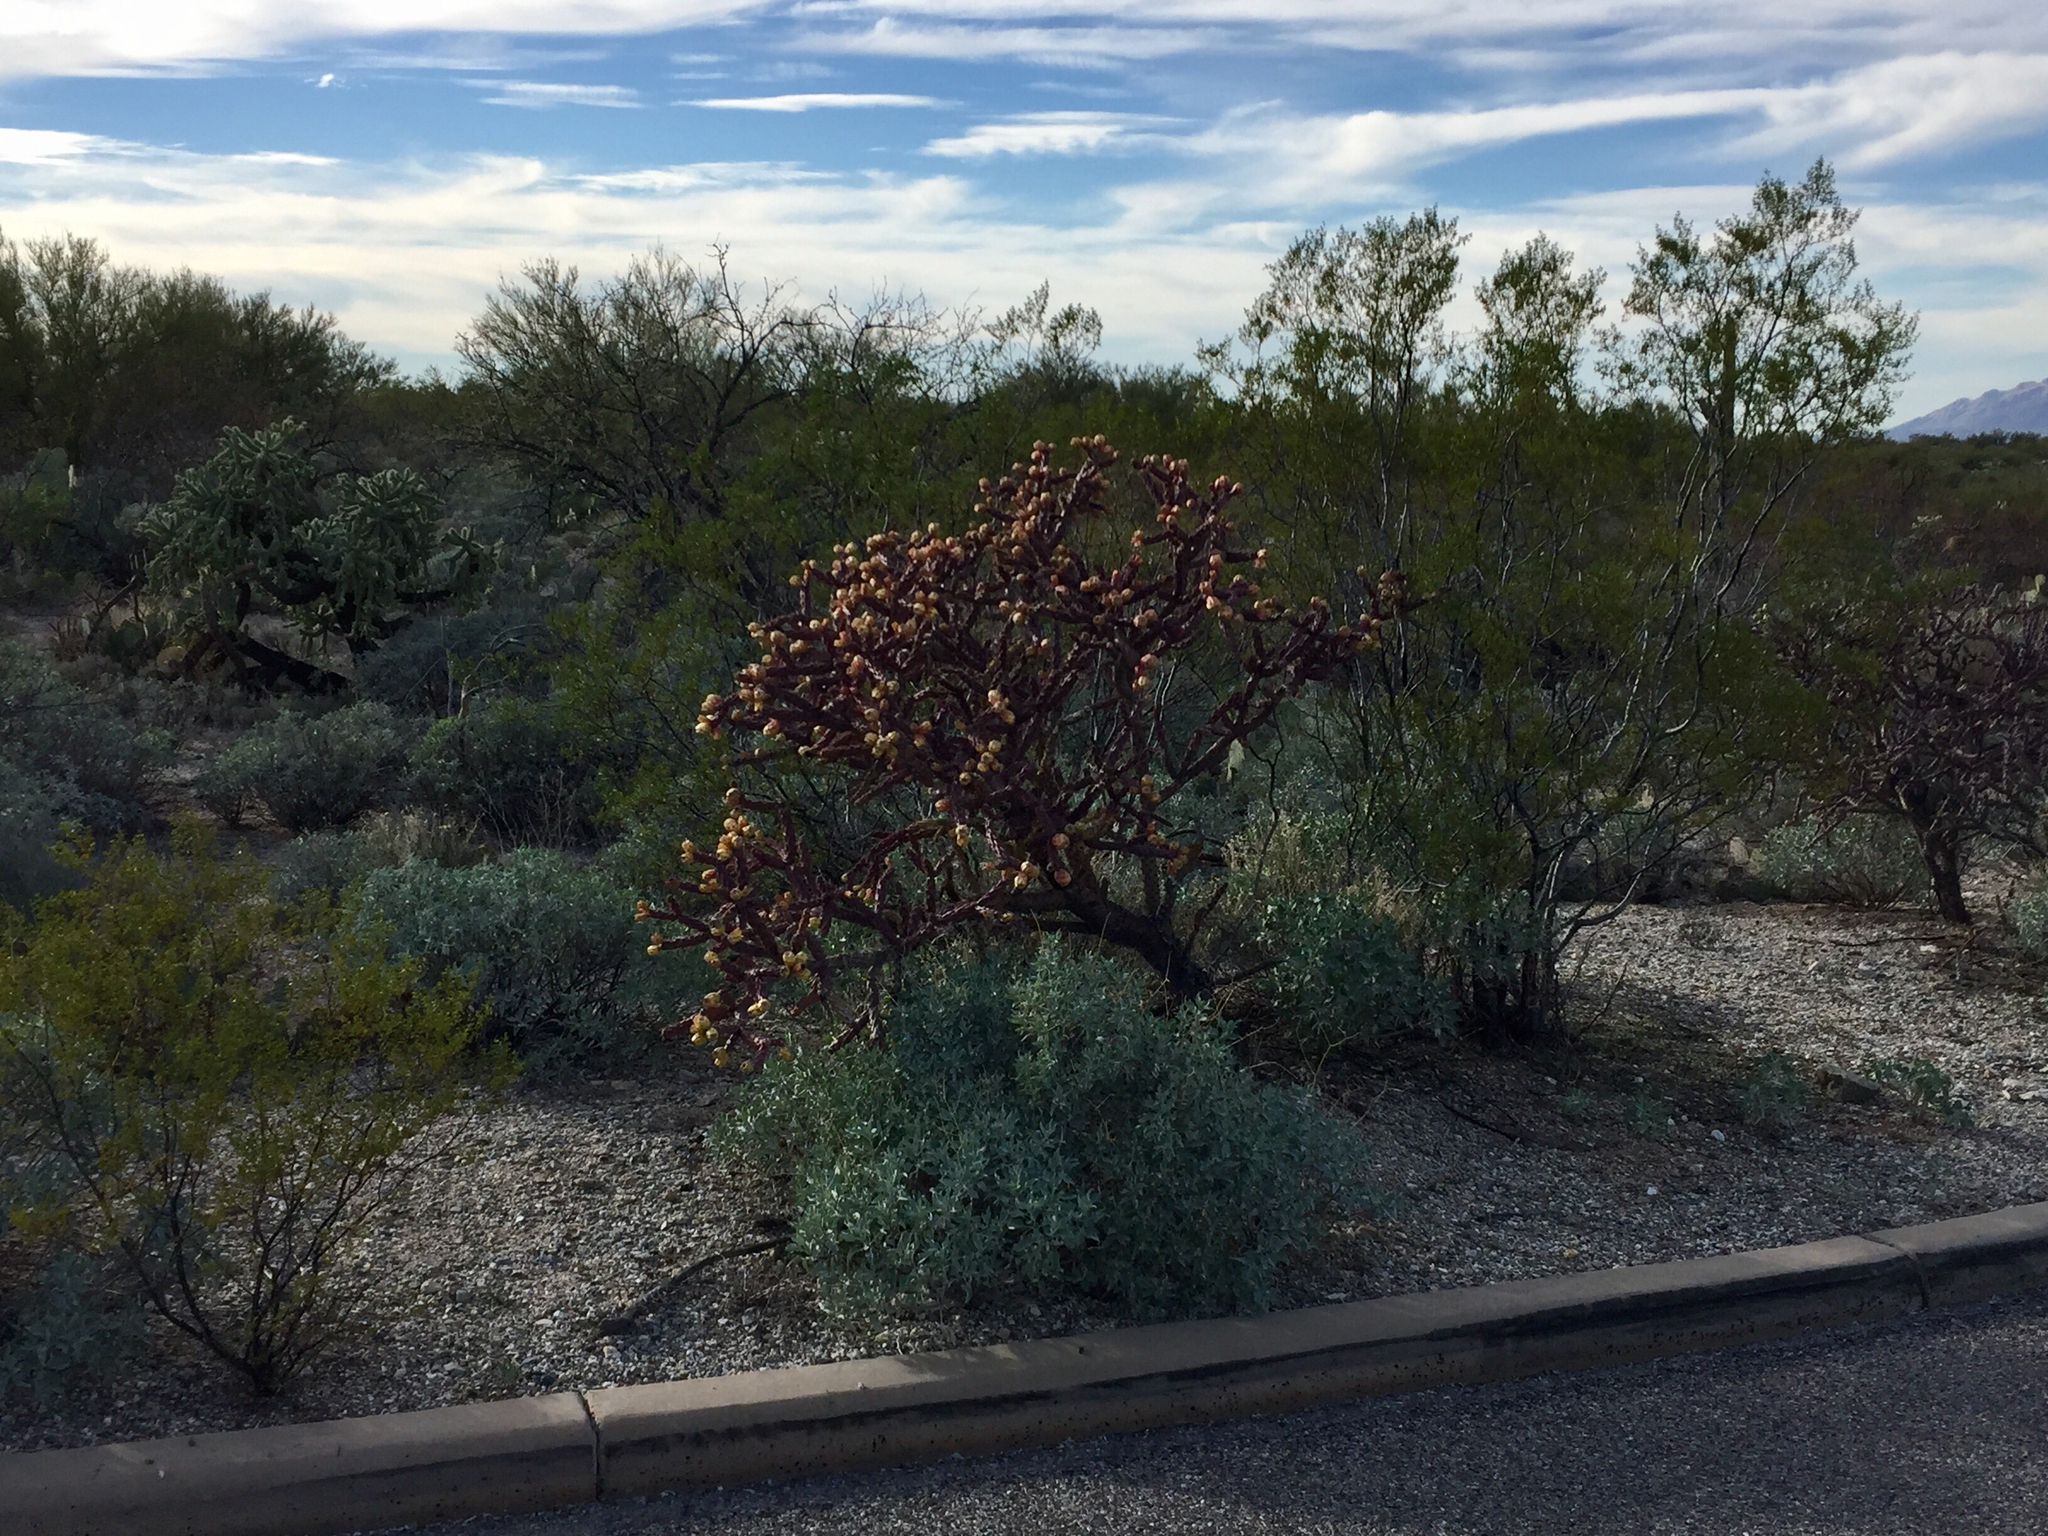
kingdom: Plantae
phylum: Tracheophyta
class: Magnoliopsida
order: Caryophyllales
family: Cactaceae
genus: Cylindropuntia
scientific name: Cylindropuntia thurberi
